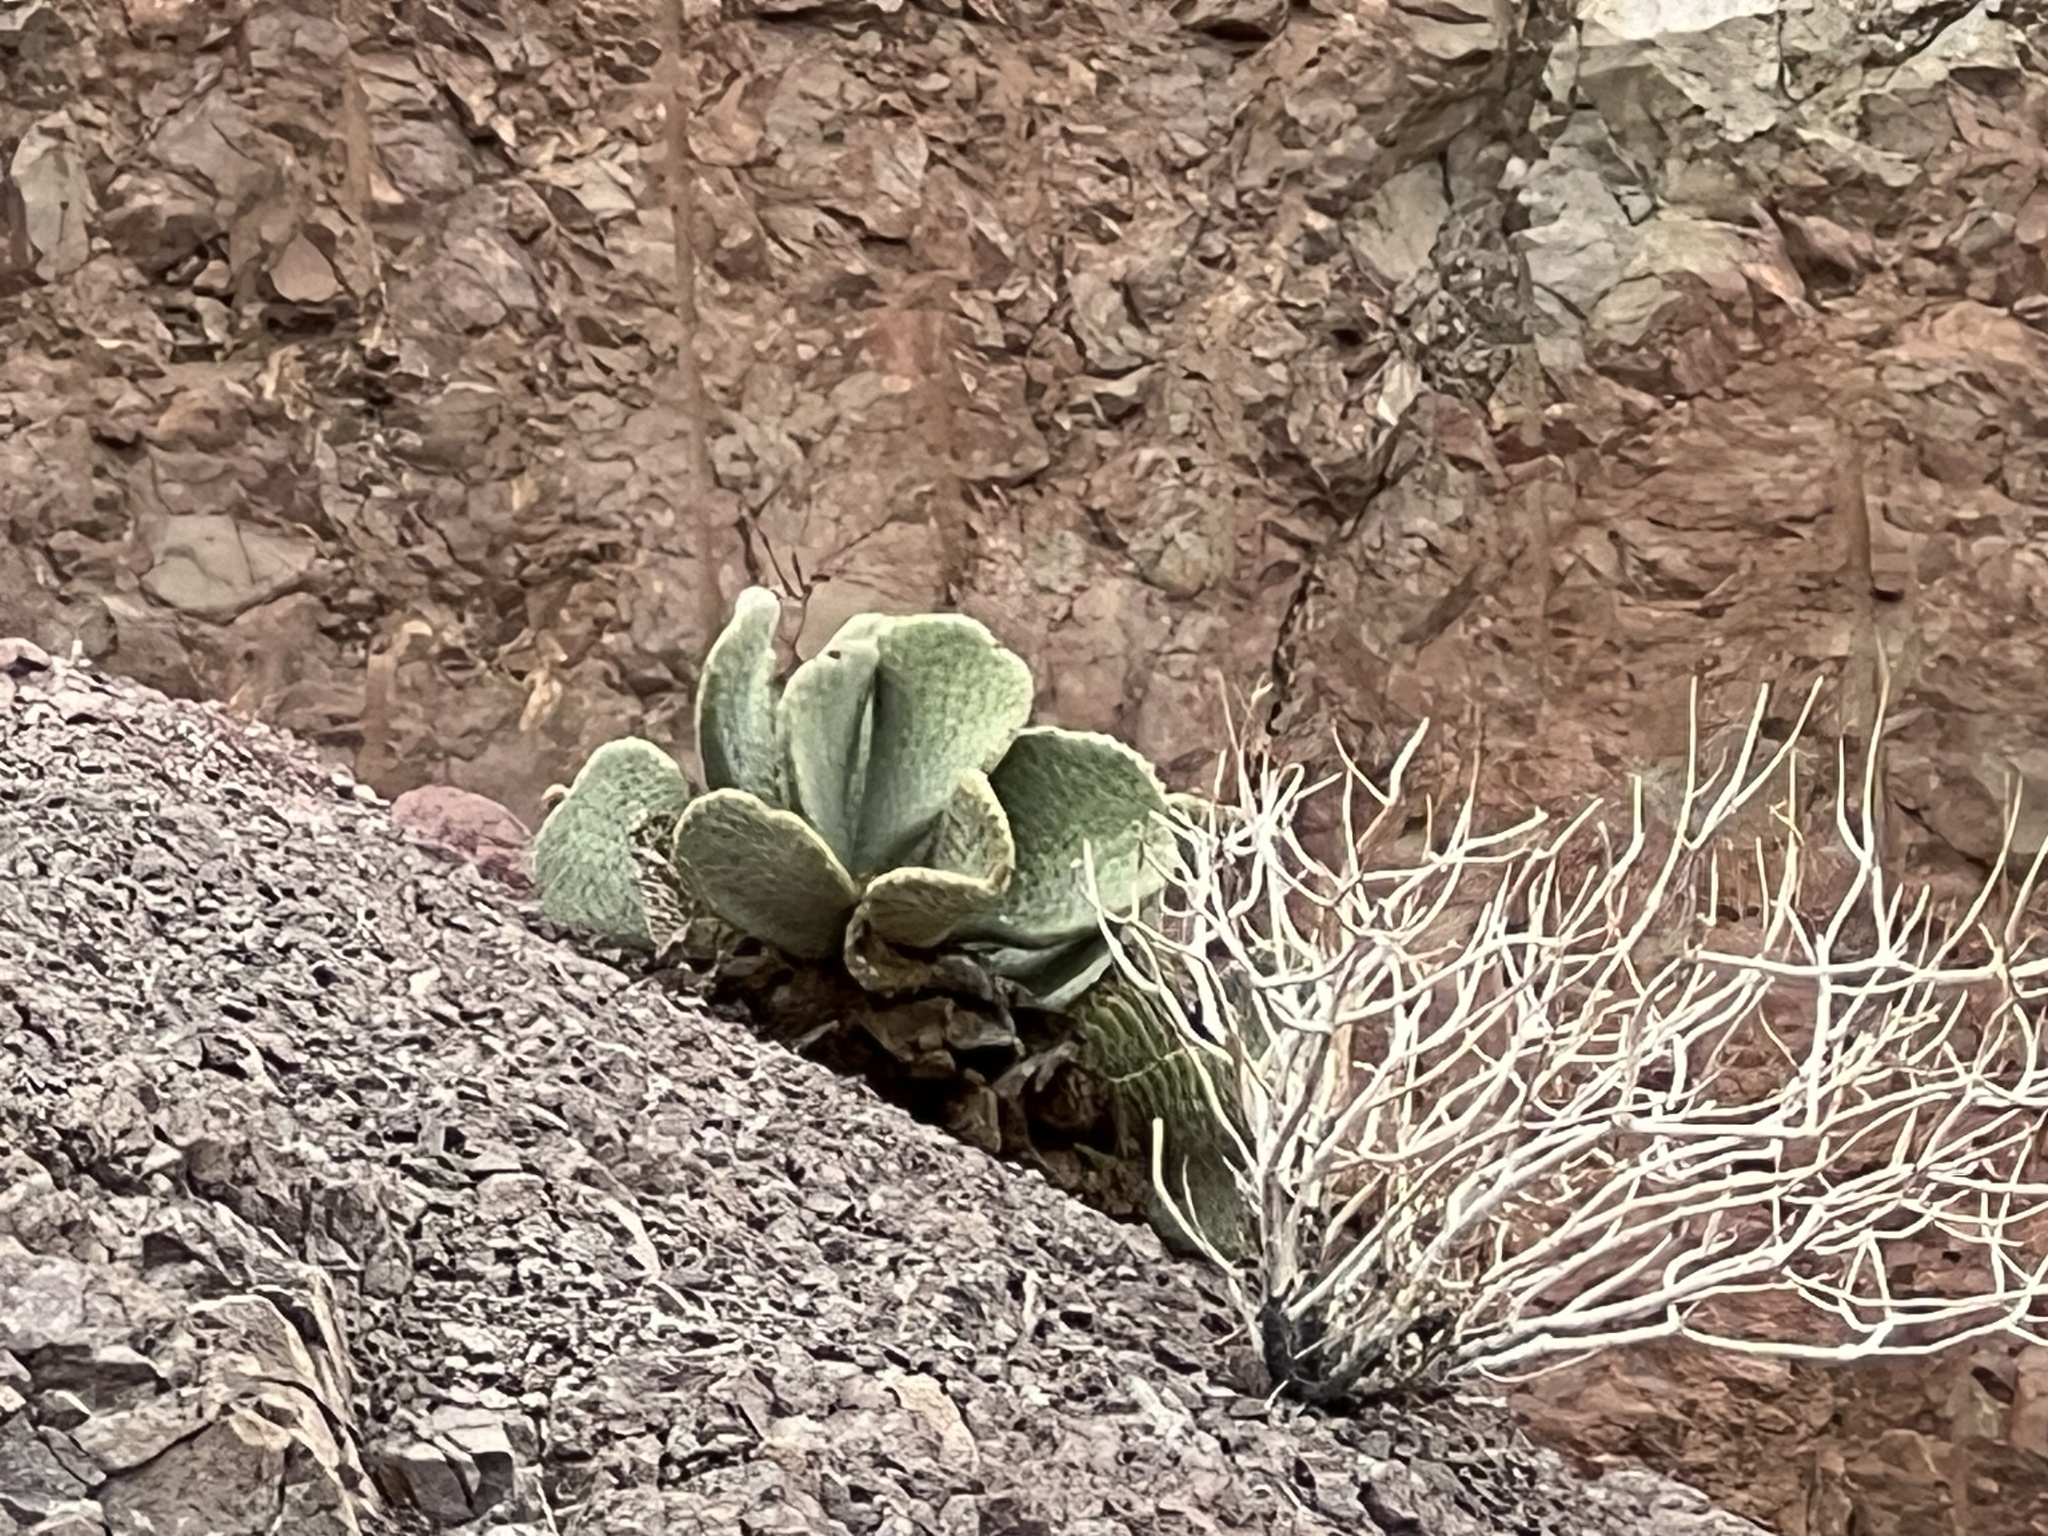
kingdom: Plantae
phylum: Tracheophyta
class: Magnoliopsida
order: Caryophyllales
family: Cactaceae
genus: Opuntia
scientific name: Opuntia basilaris
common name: Beavertail prickly-pear
